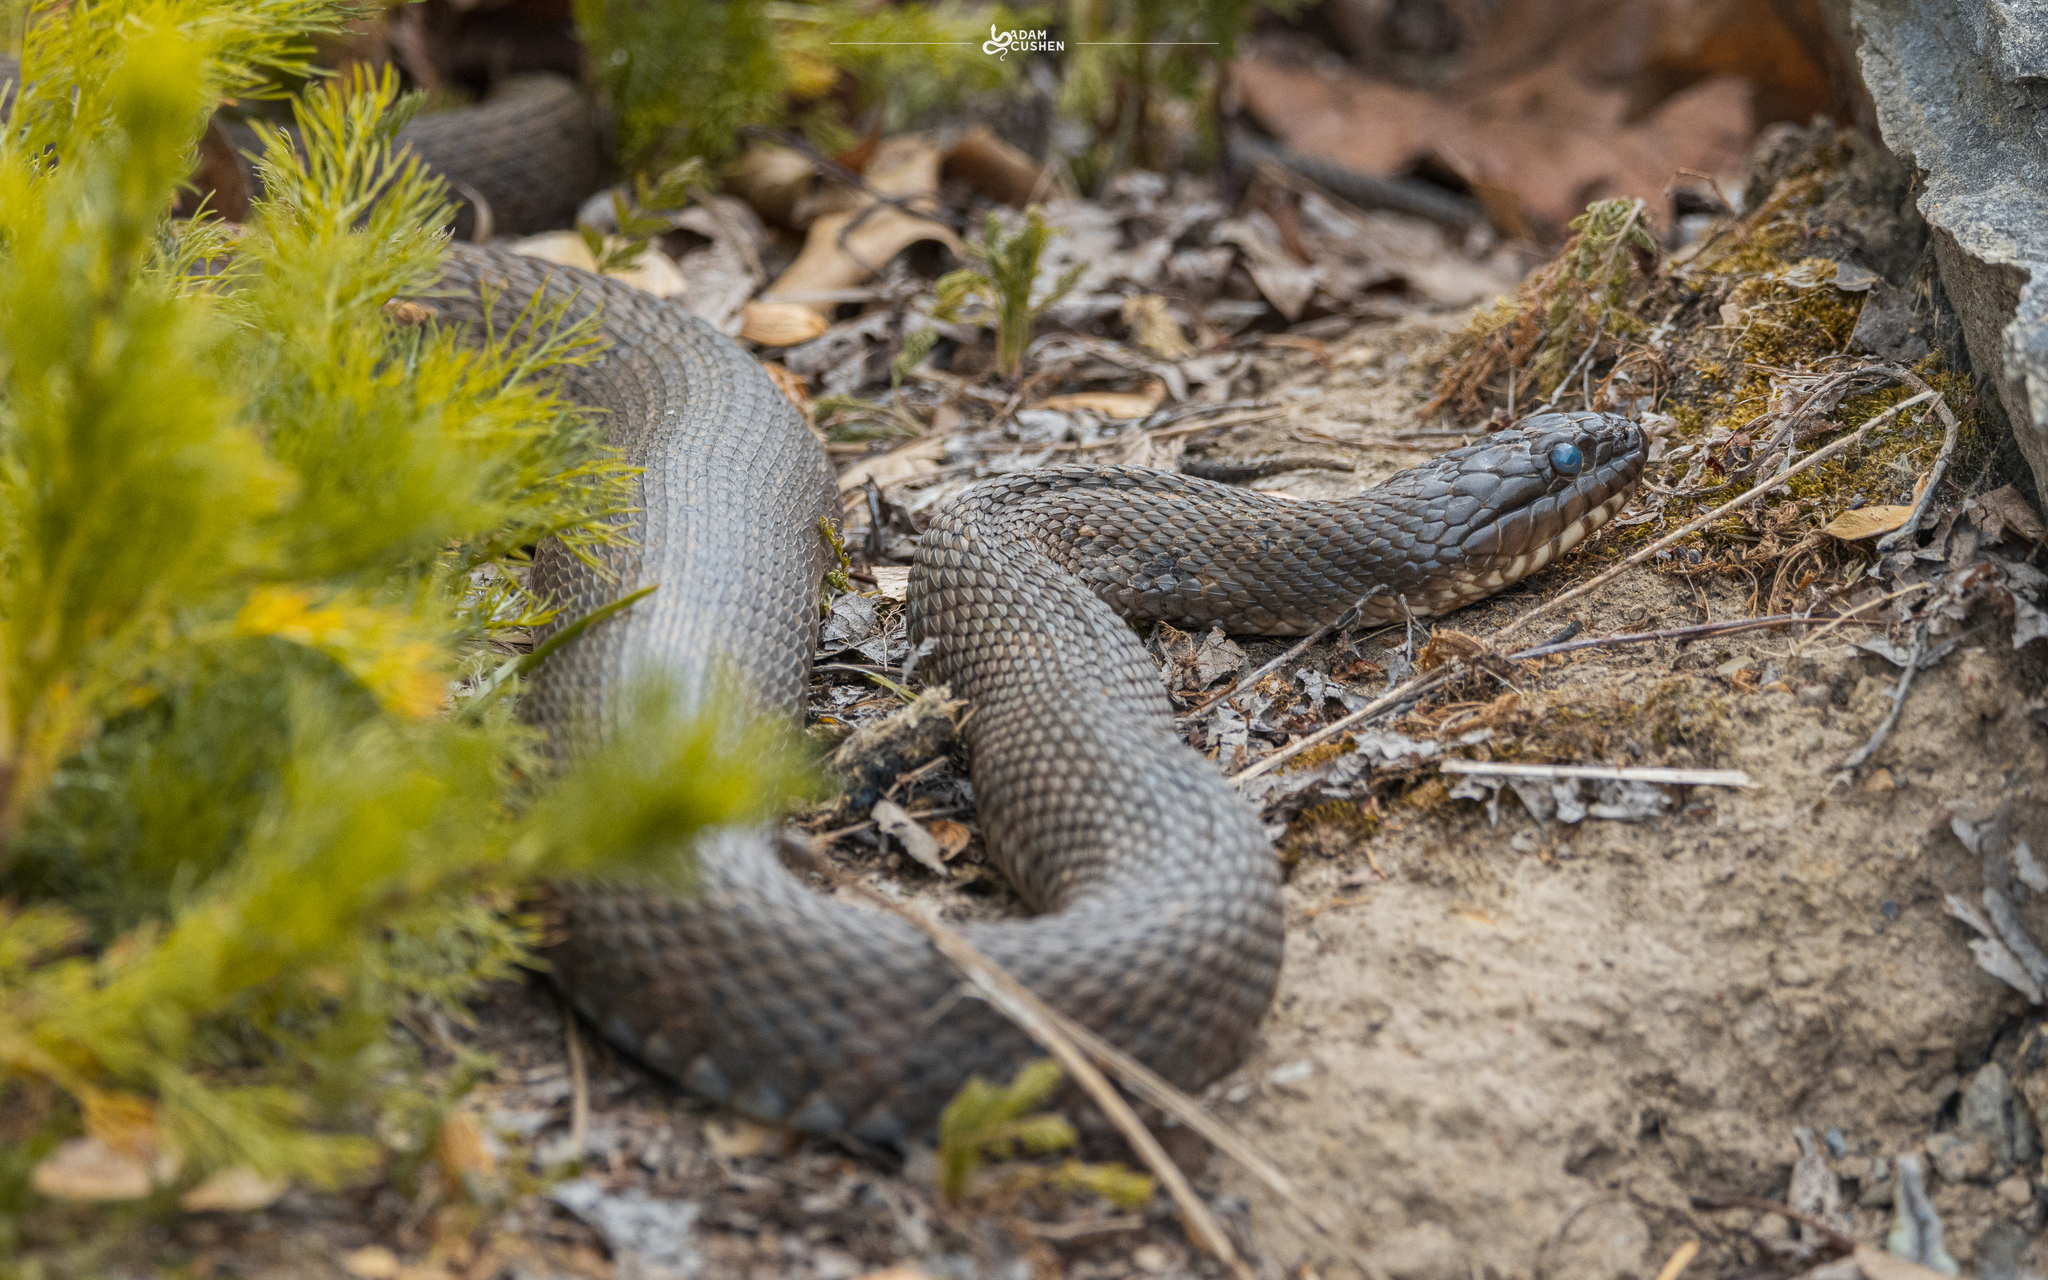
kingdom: Animalia
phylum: Chordata
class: Squamata
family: Colubridae
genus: Nerodia
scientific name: Nerodia sipedon
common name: Northern water snake
